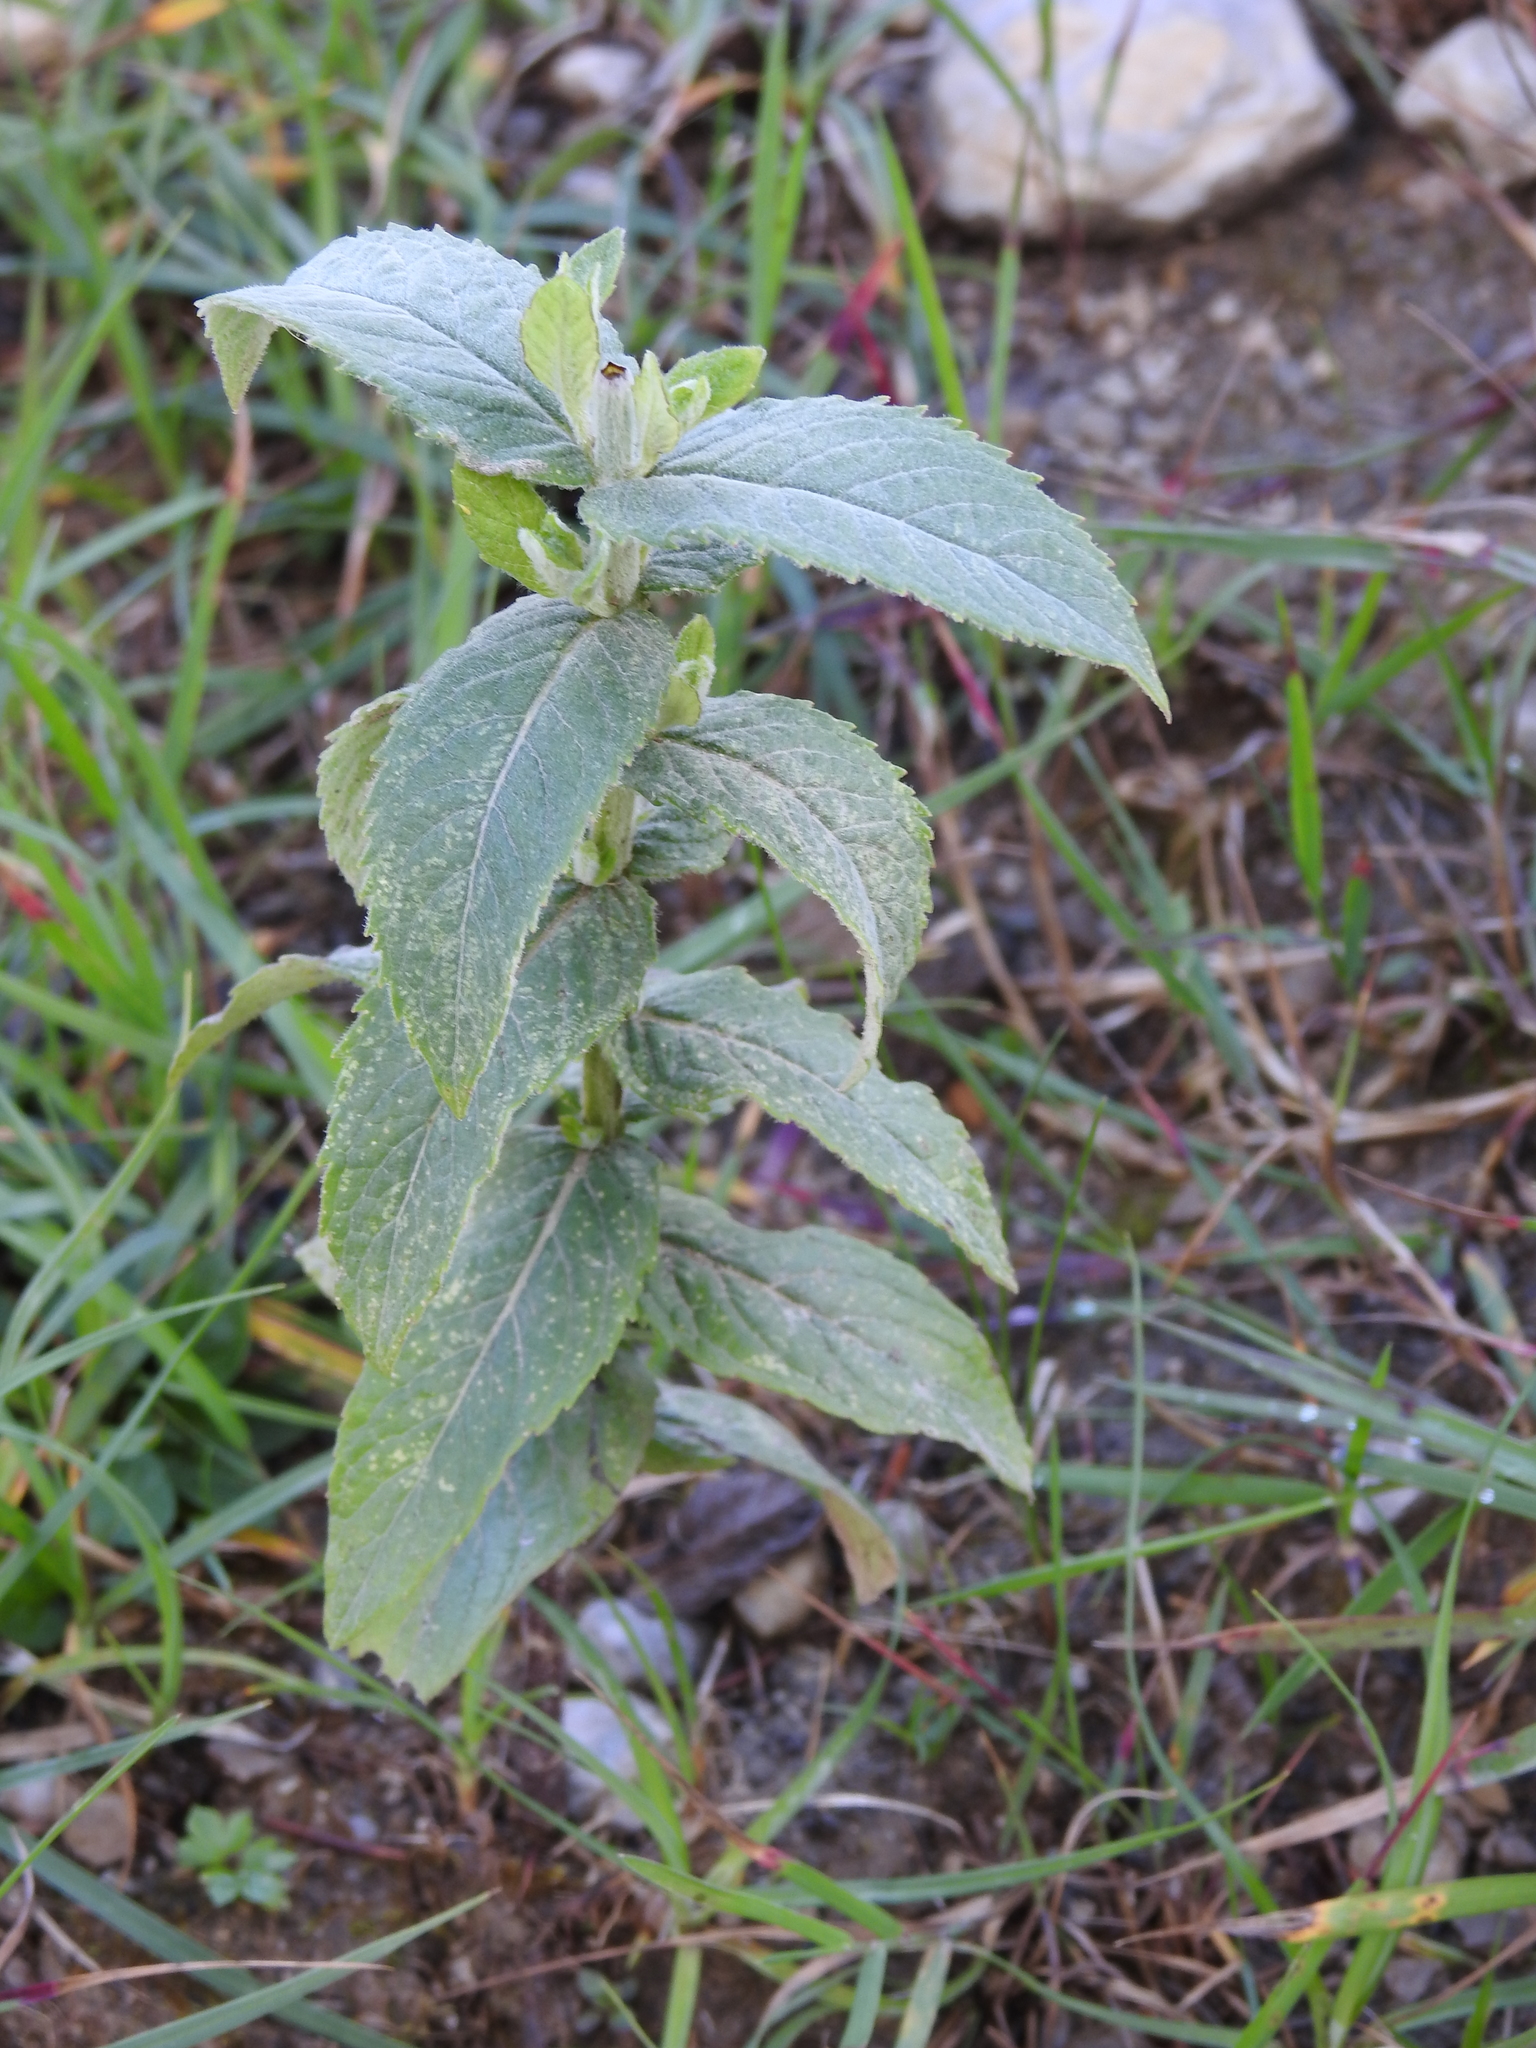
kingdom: Plantae
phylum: Tracheophyta
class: Magnoliopsida
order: Lamiales
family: Lamiaceae
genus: Mentha
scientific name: Mentha longifolia
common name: Horse mint
